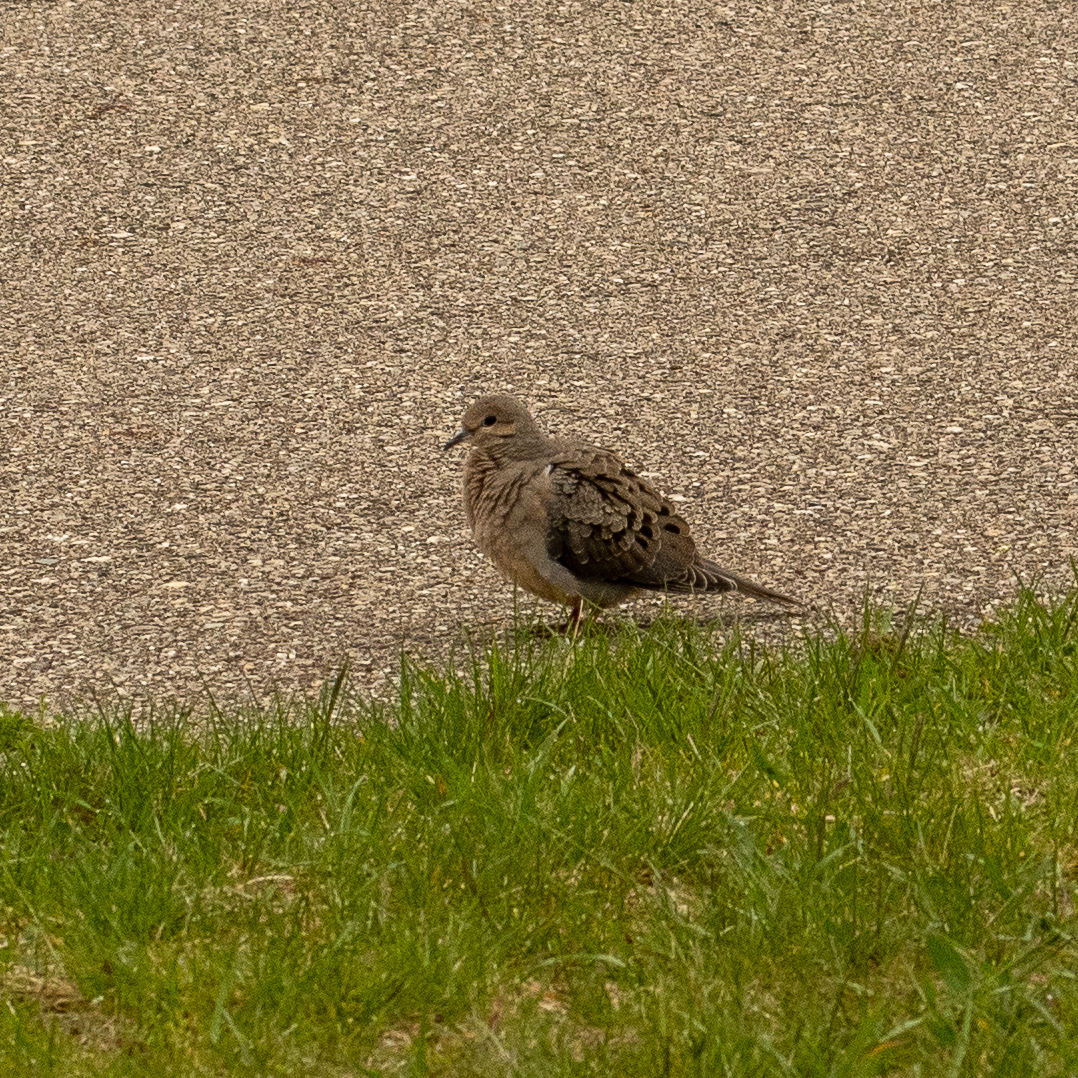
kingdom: Animalia
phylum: Chordata
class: Aves
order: Columbiformes
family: Columbidae
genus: Zenaida
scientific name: Zenaida macroura
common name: Mourning dove
